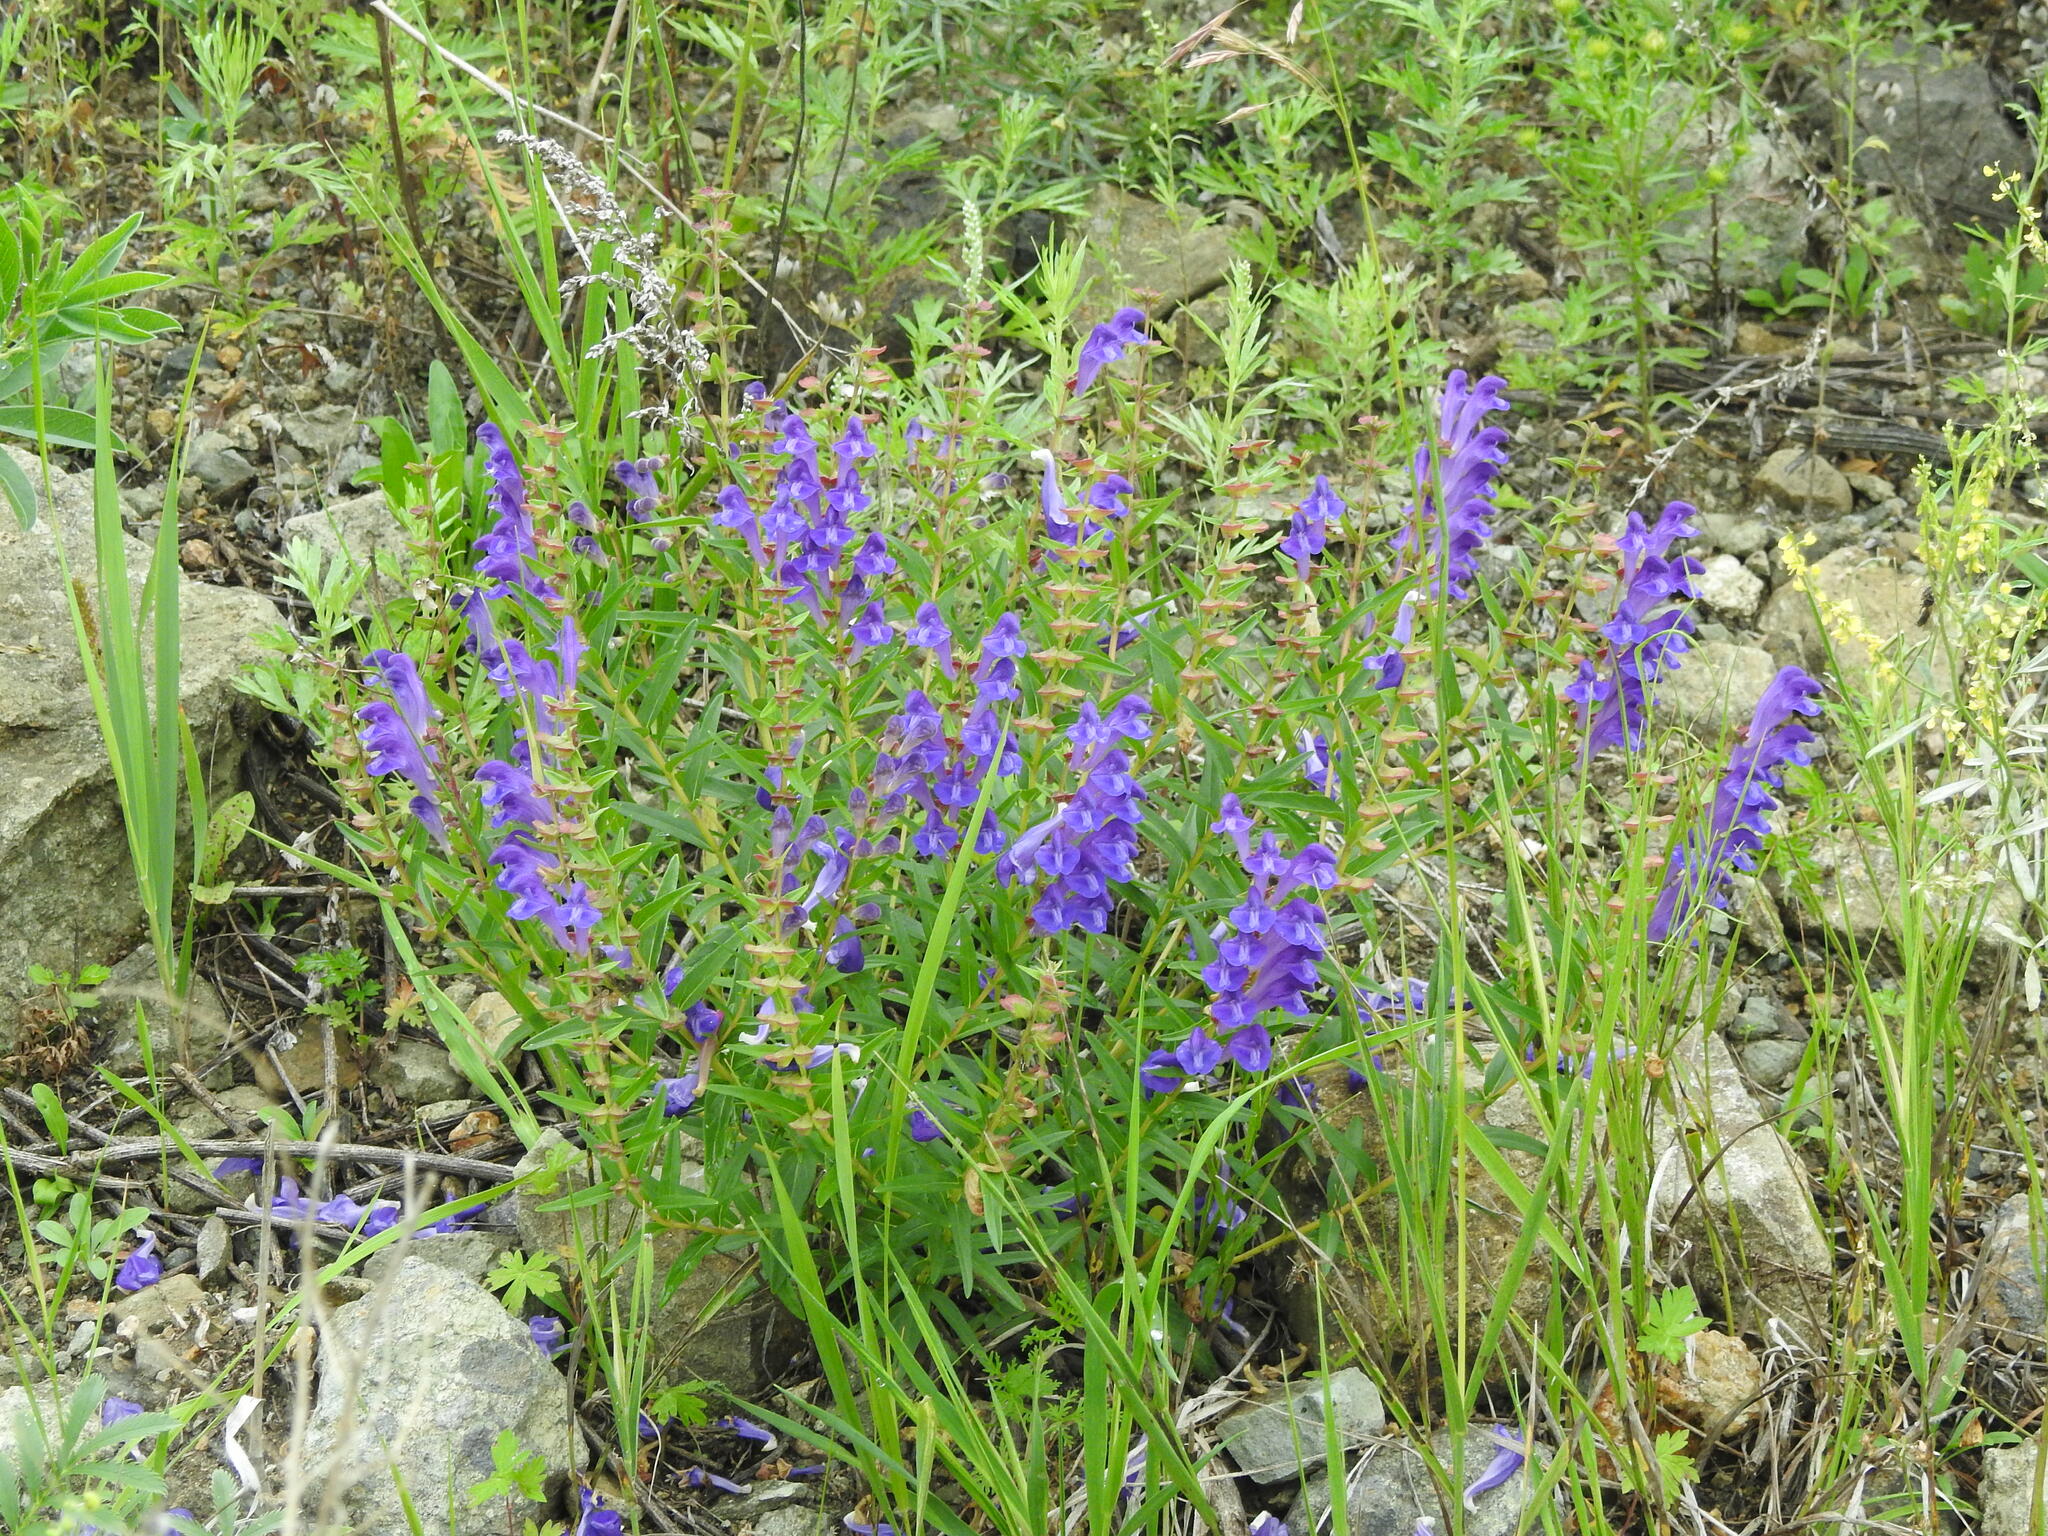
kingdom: Plantae
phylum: Tracheophyta
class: Magnoliopsida
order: Lamiales
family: Lamiaceae
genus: Scutellaria
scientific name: Scutellaria baicalensis
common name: Baikal skullcap
